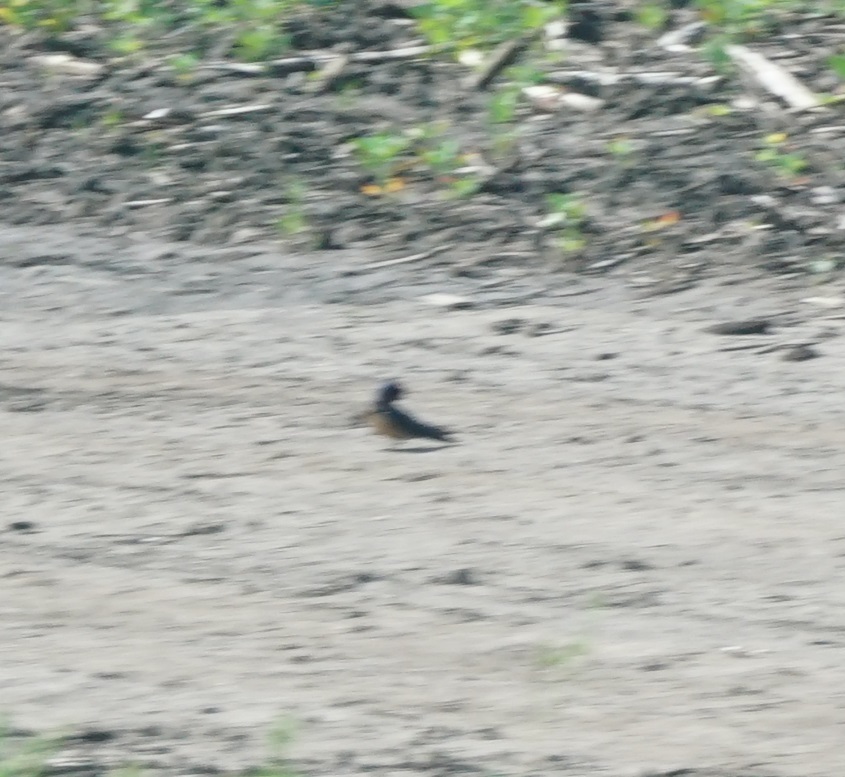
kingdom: Animalia
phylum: Chordata
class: Aves
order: Passeriformes
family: Hirundinidae
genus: Hirundo
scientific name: Hirundo rustica
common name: Barn swallow
